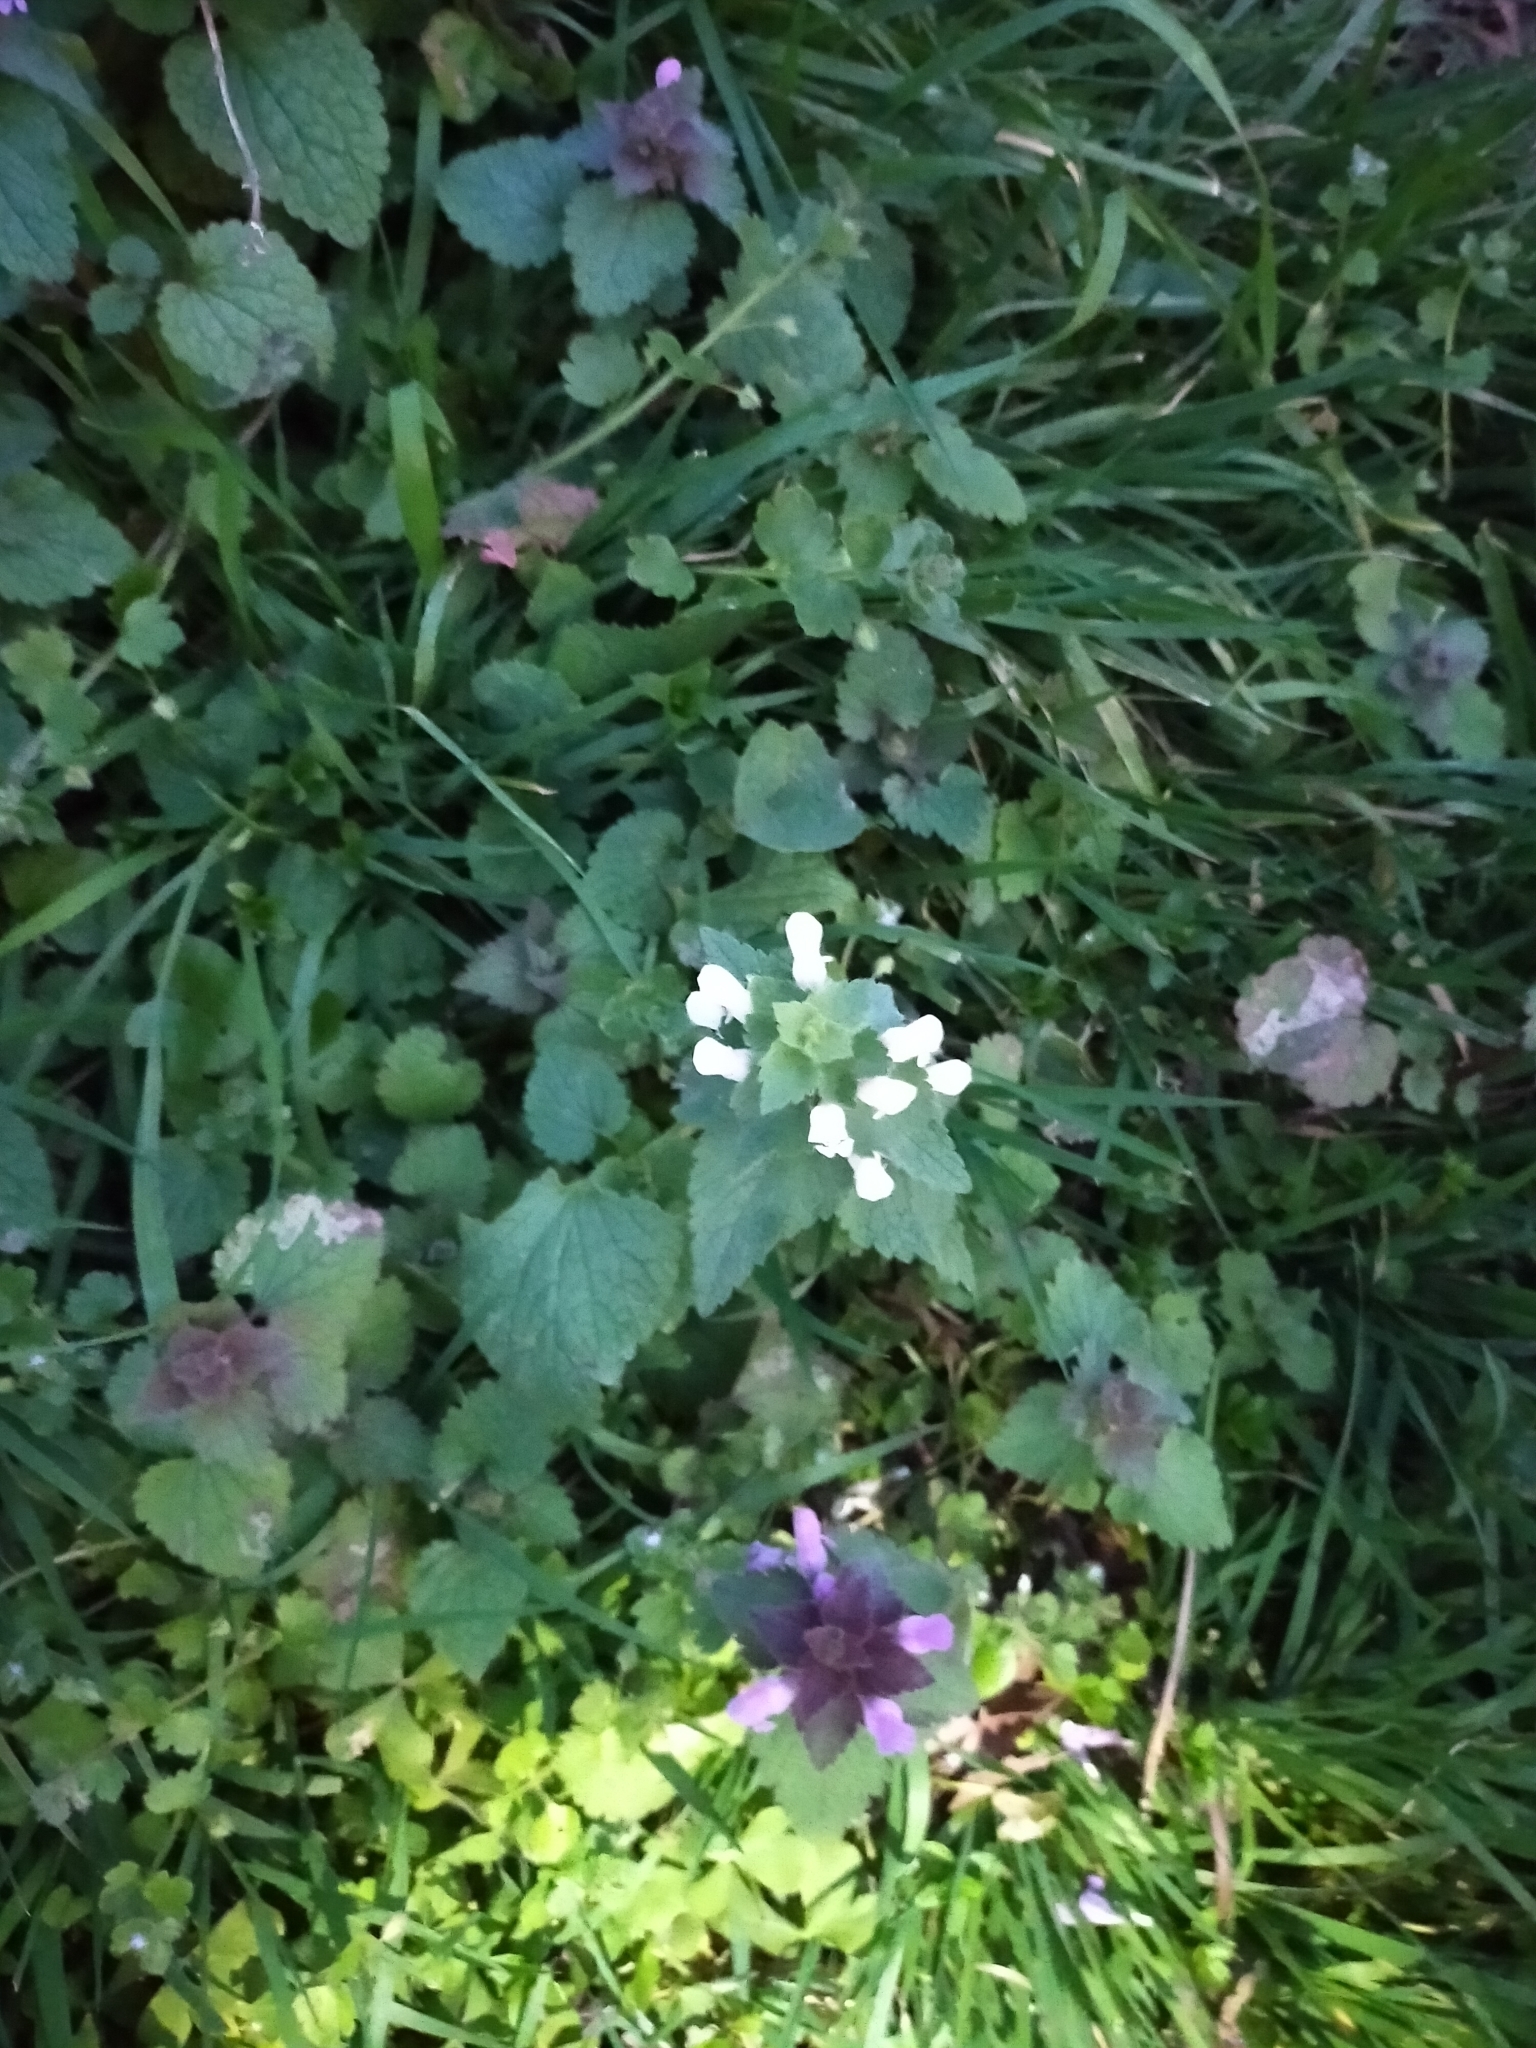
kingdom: Plantae
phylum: Tracheophyta
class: Magnoliopsida
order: Lamiales
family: Lamiaceae
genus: Lamium
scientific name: Lamium purpureum
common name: Red dead-nettle
